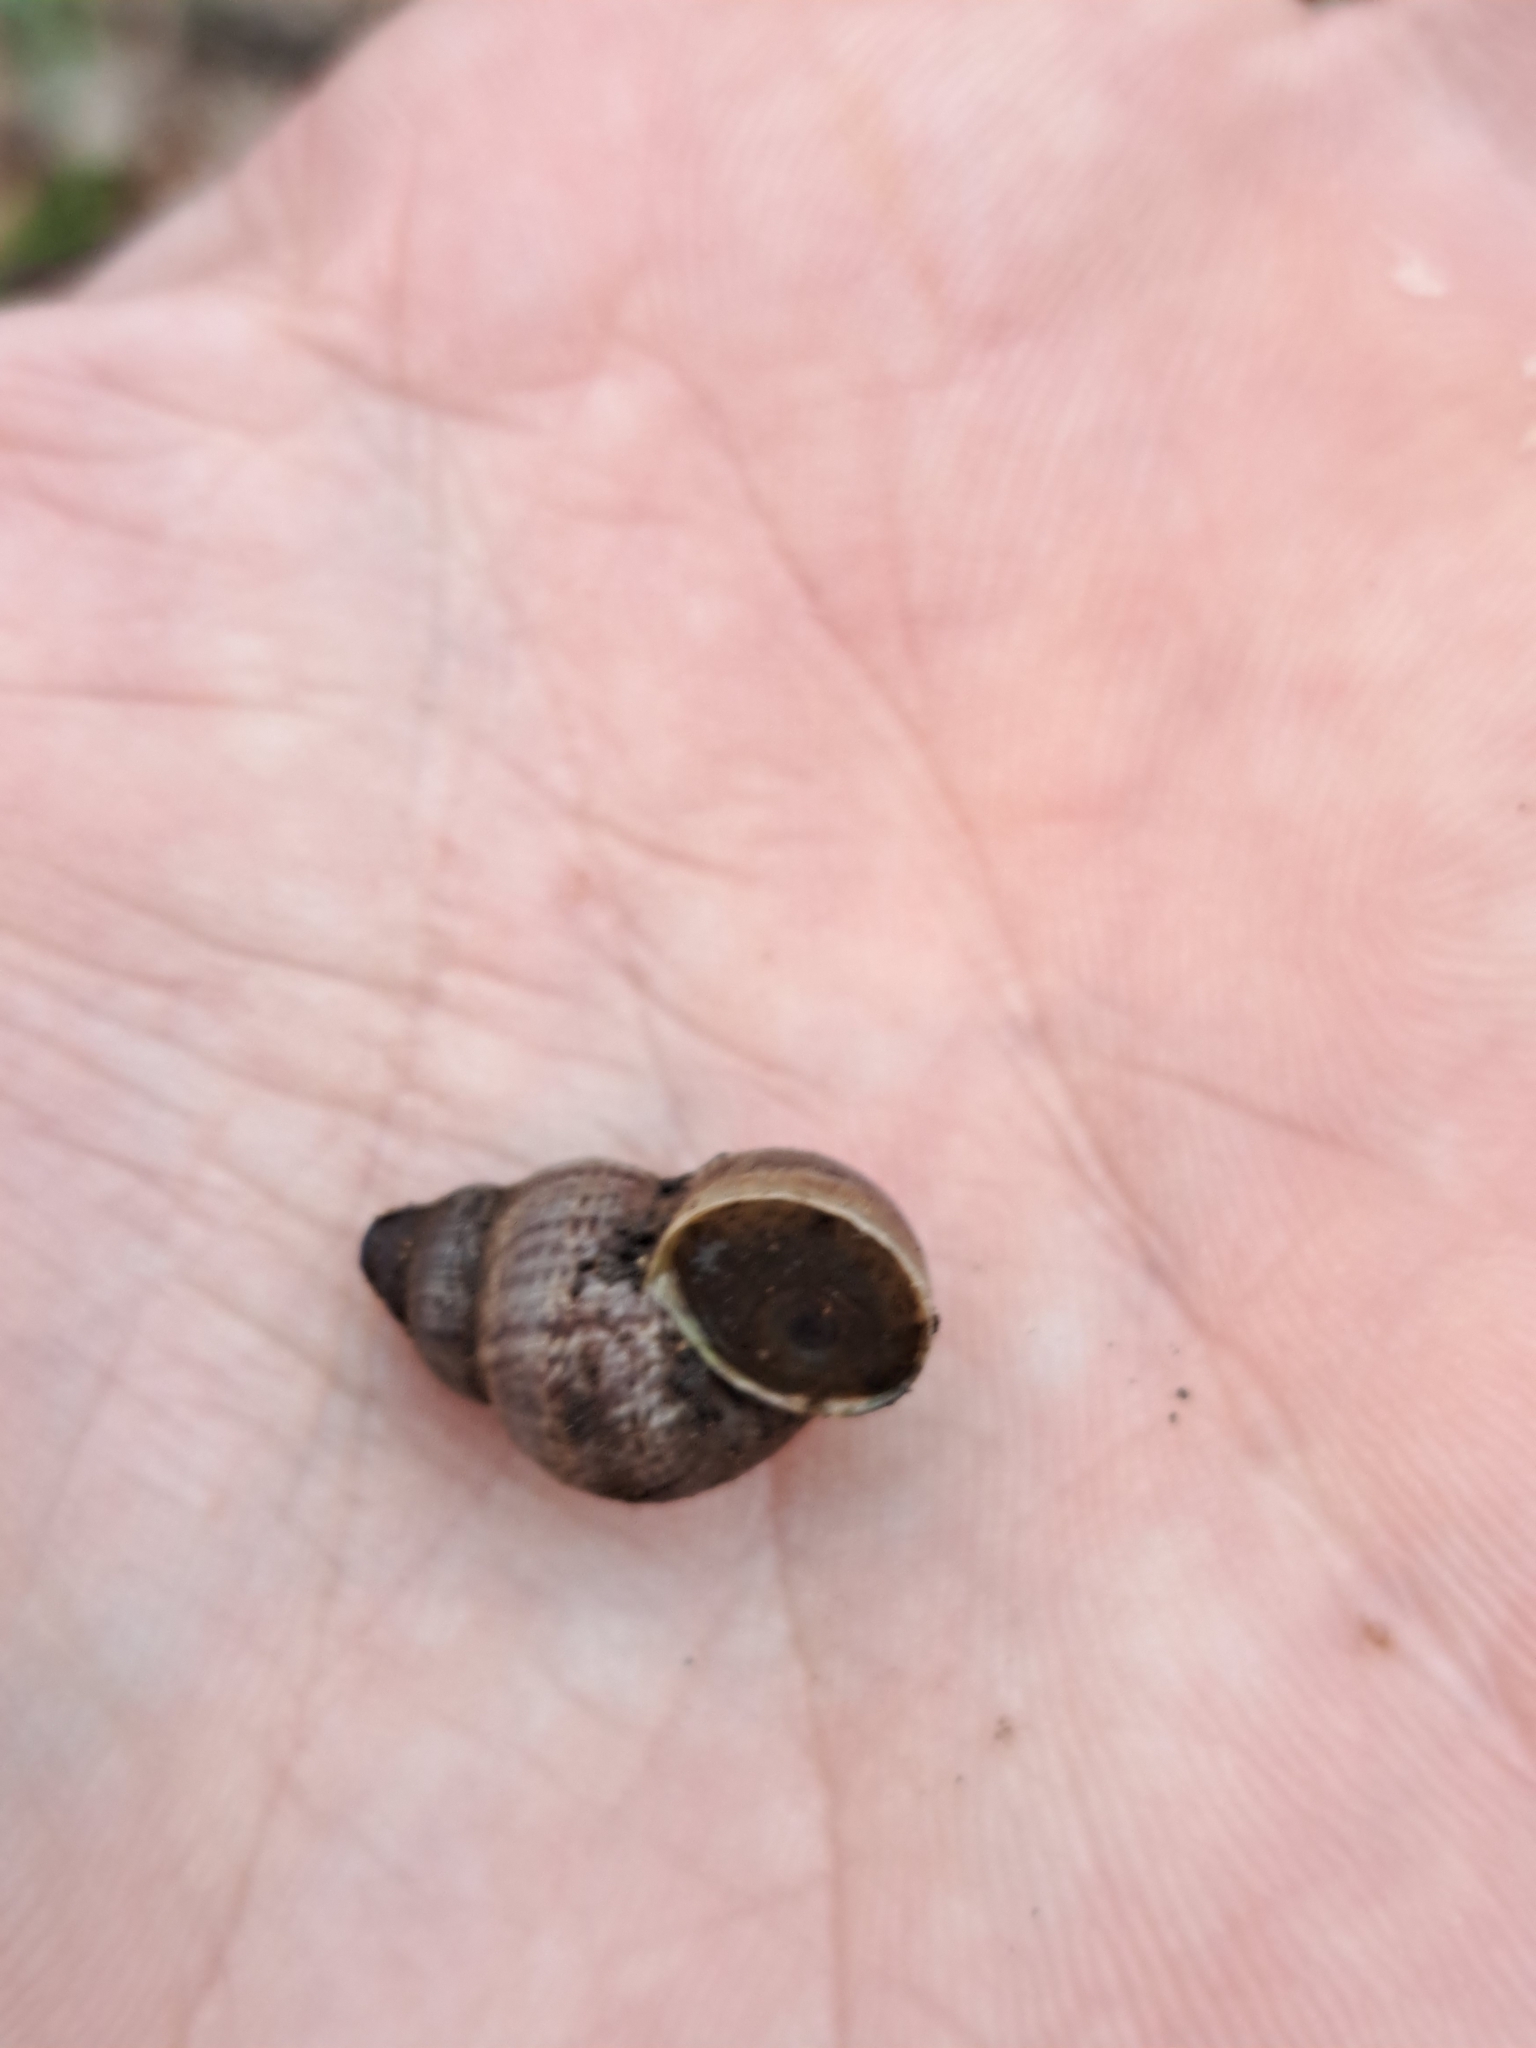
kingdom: Animalia
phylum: Mollusca
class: Gastropoda
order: Littorinimorpha
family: Pomatiidae
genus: Pomatias
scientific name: Pomatias elegans
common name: Red-mouthed snail
